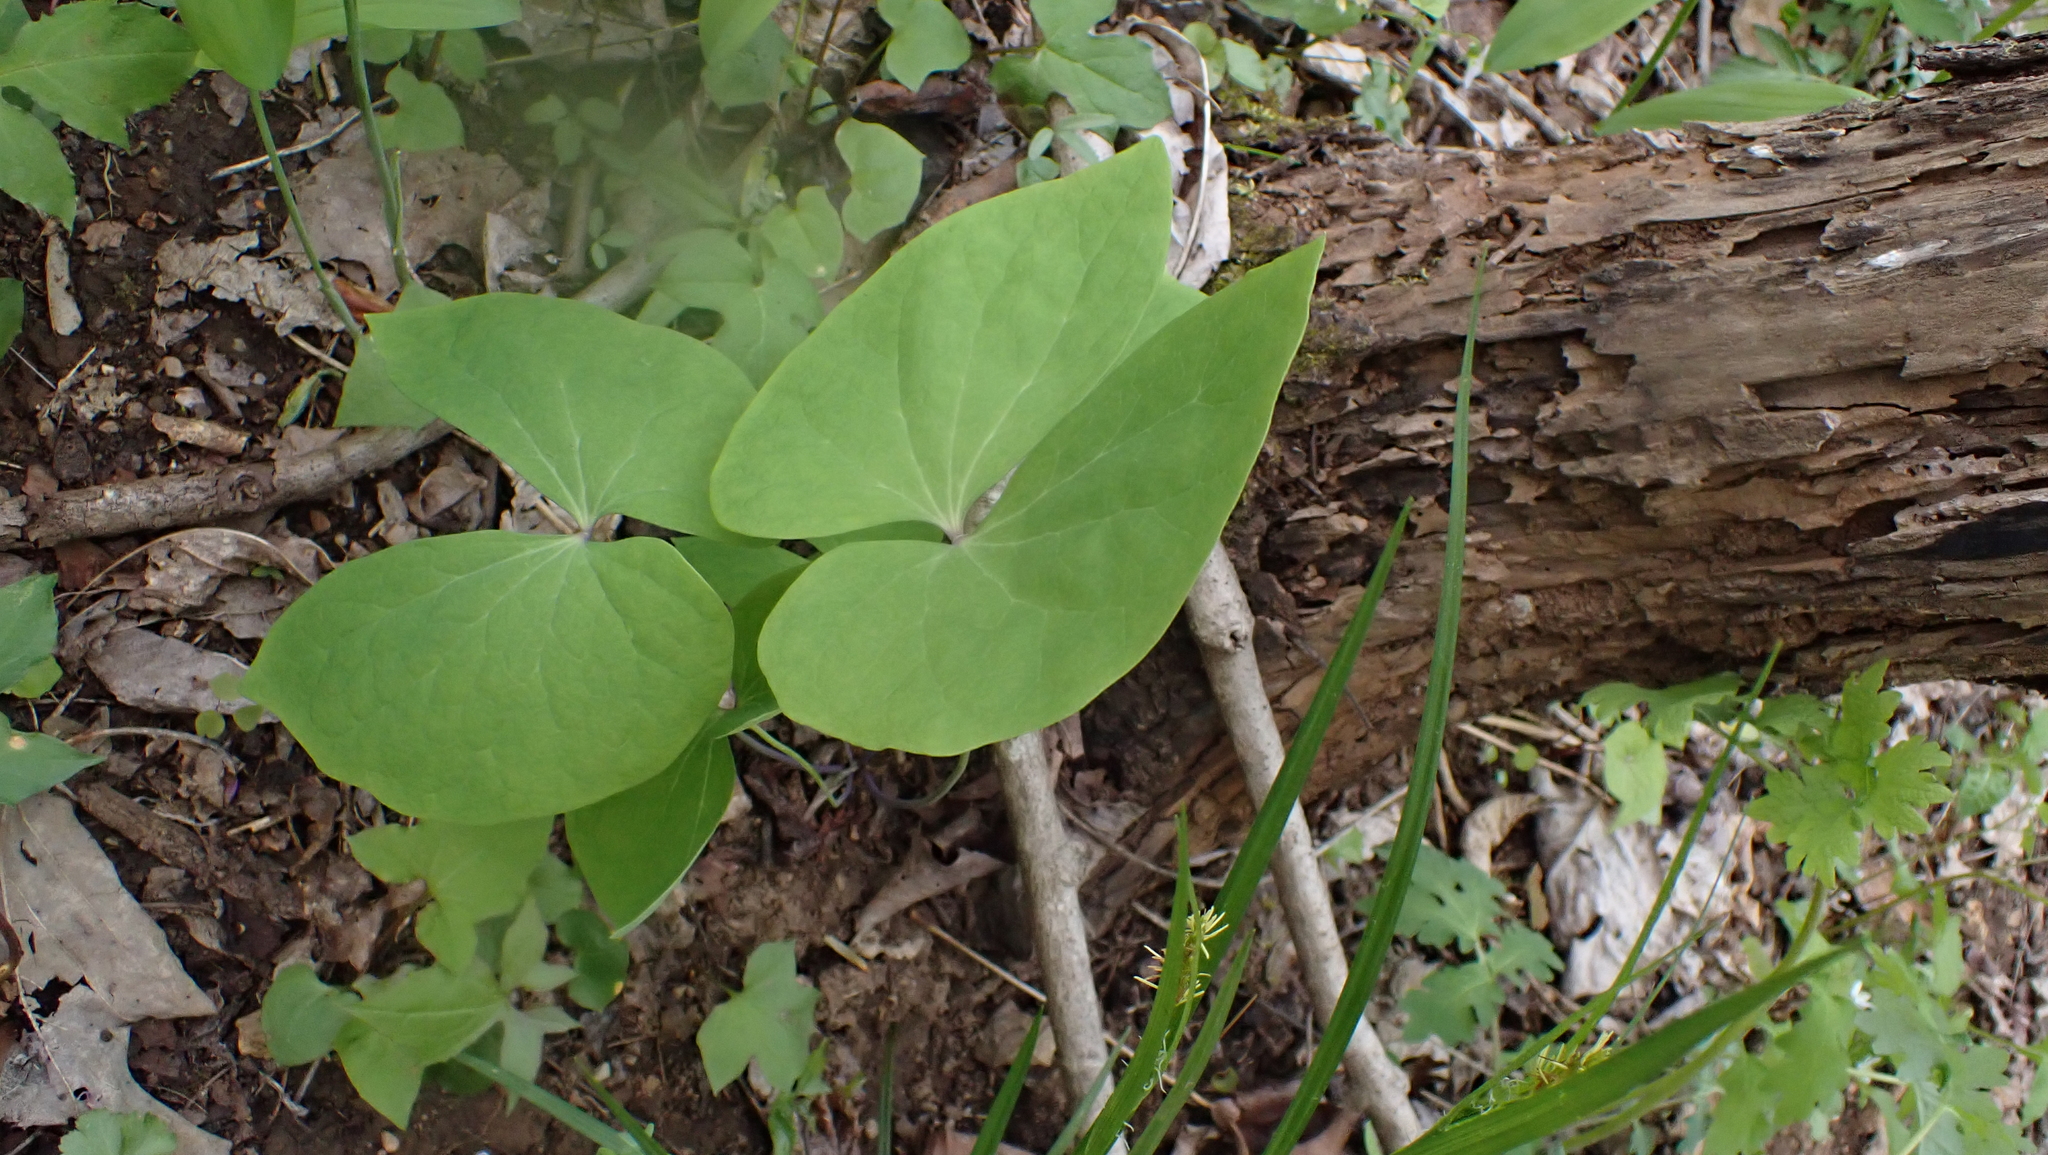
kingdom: Plantae
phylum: Tracheophyta
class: Magnoliopsida
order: Ranunculales
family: Berberidaceae
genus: Jeffersonia
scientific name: Jeffersonia diphylla
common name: Rheumatism-root
